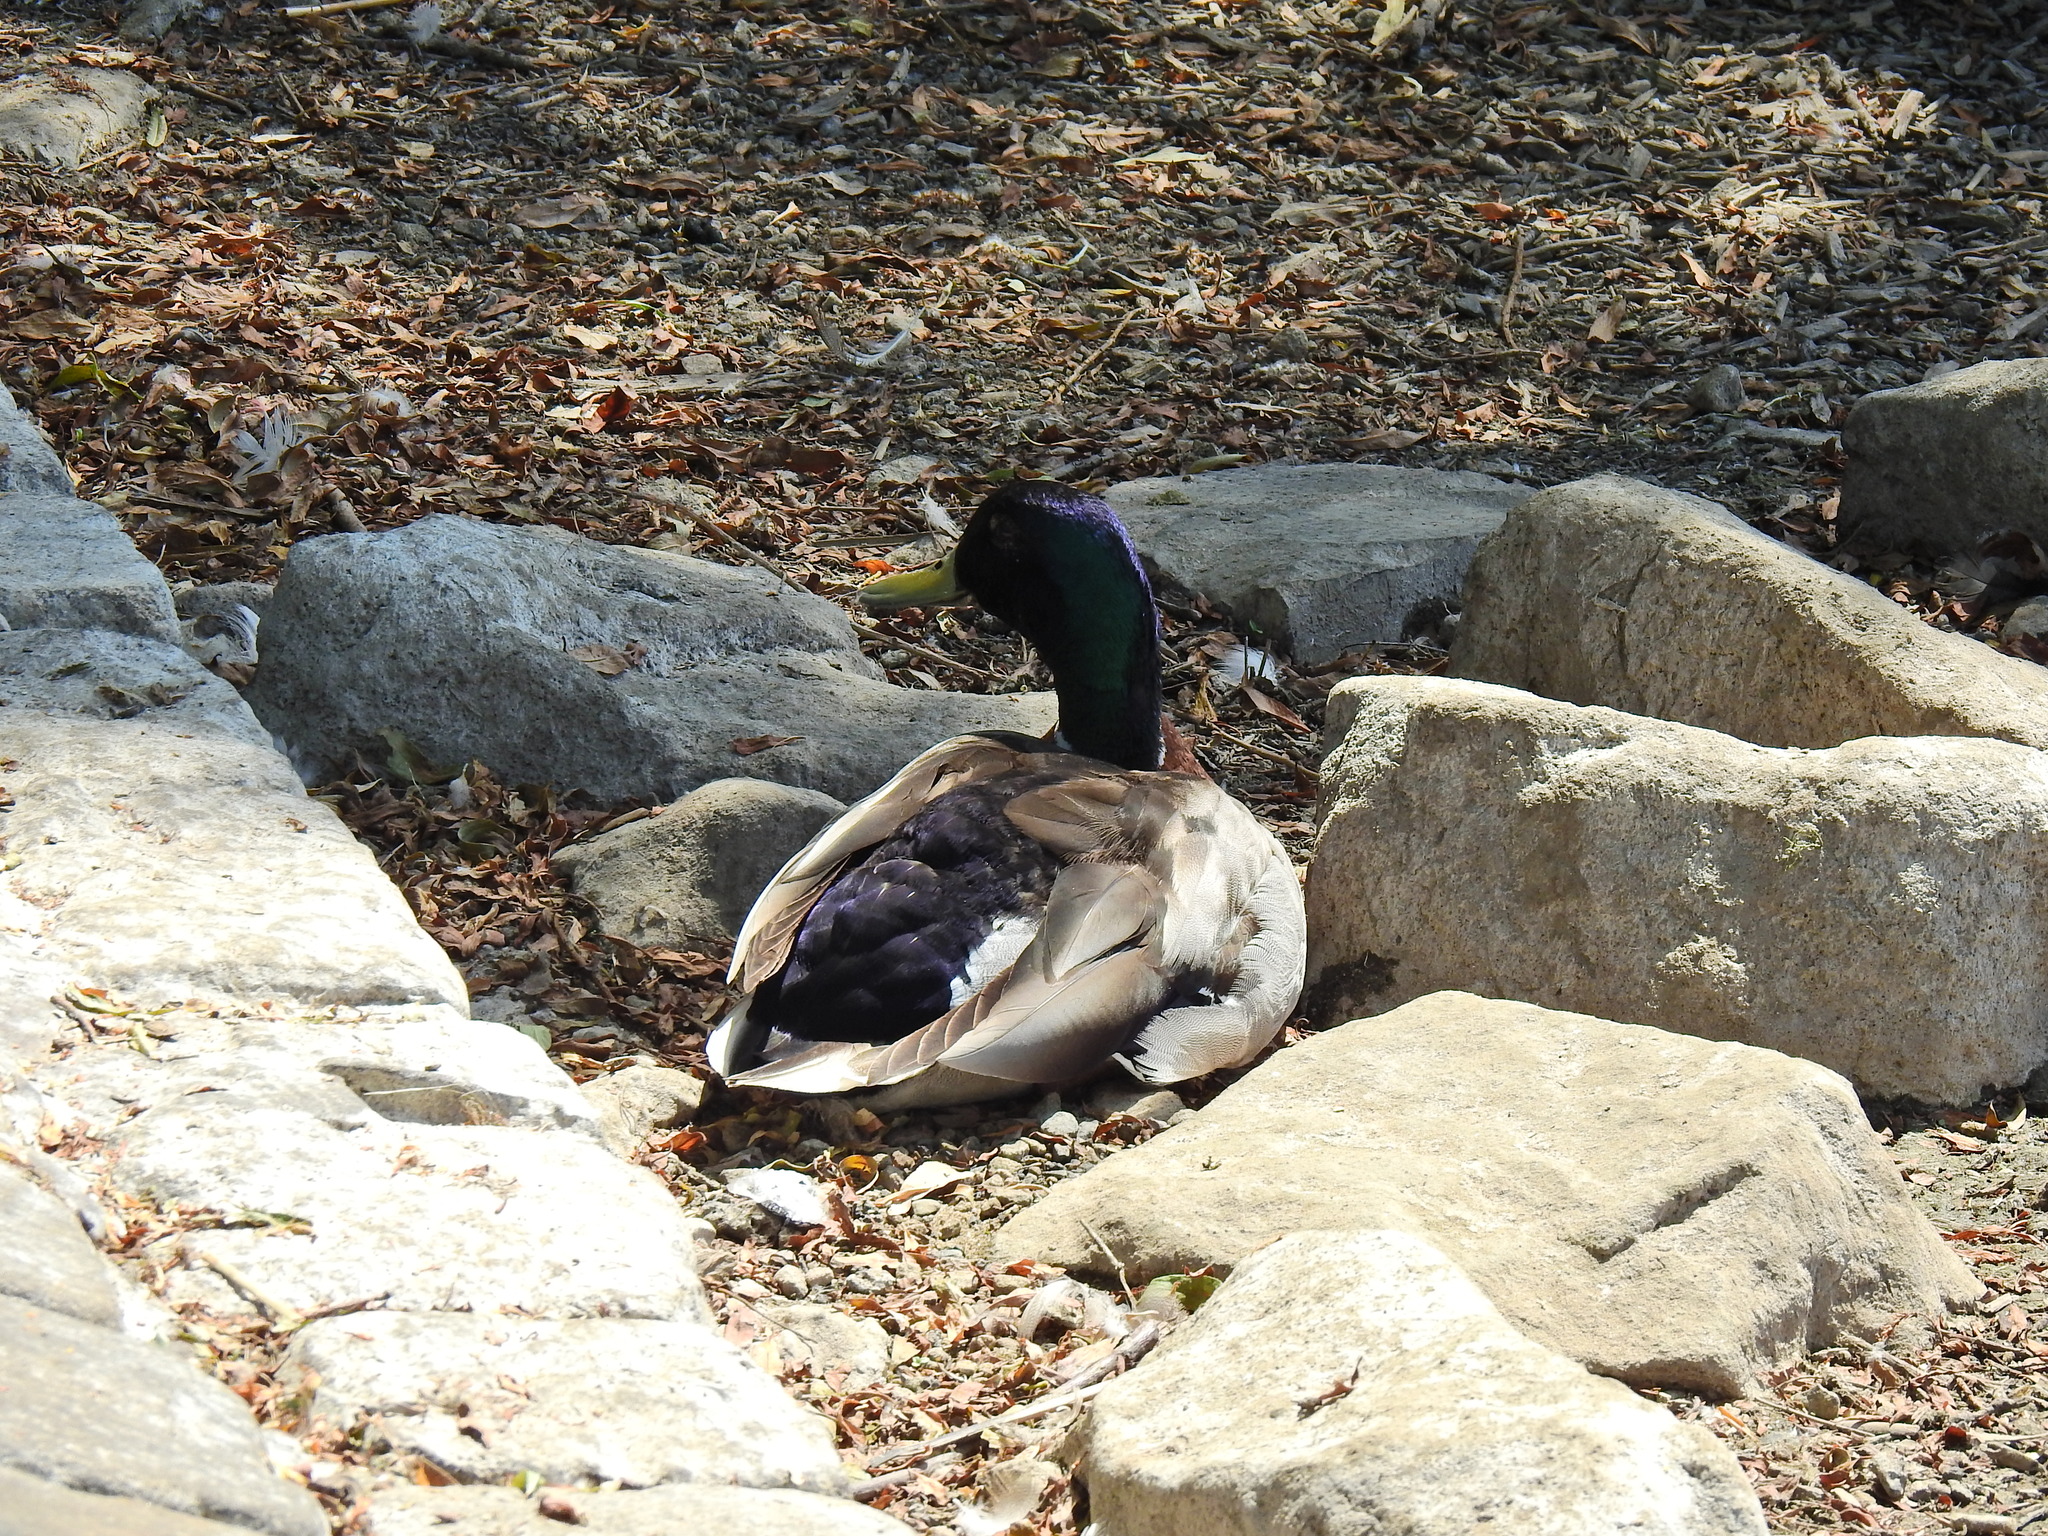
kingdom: Animalia
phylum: Chordata
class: Aves
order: Anseriformes
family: Anatidae
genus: Anas
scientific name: Anas platyrhynchos
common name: Mallard
